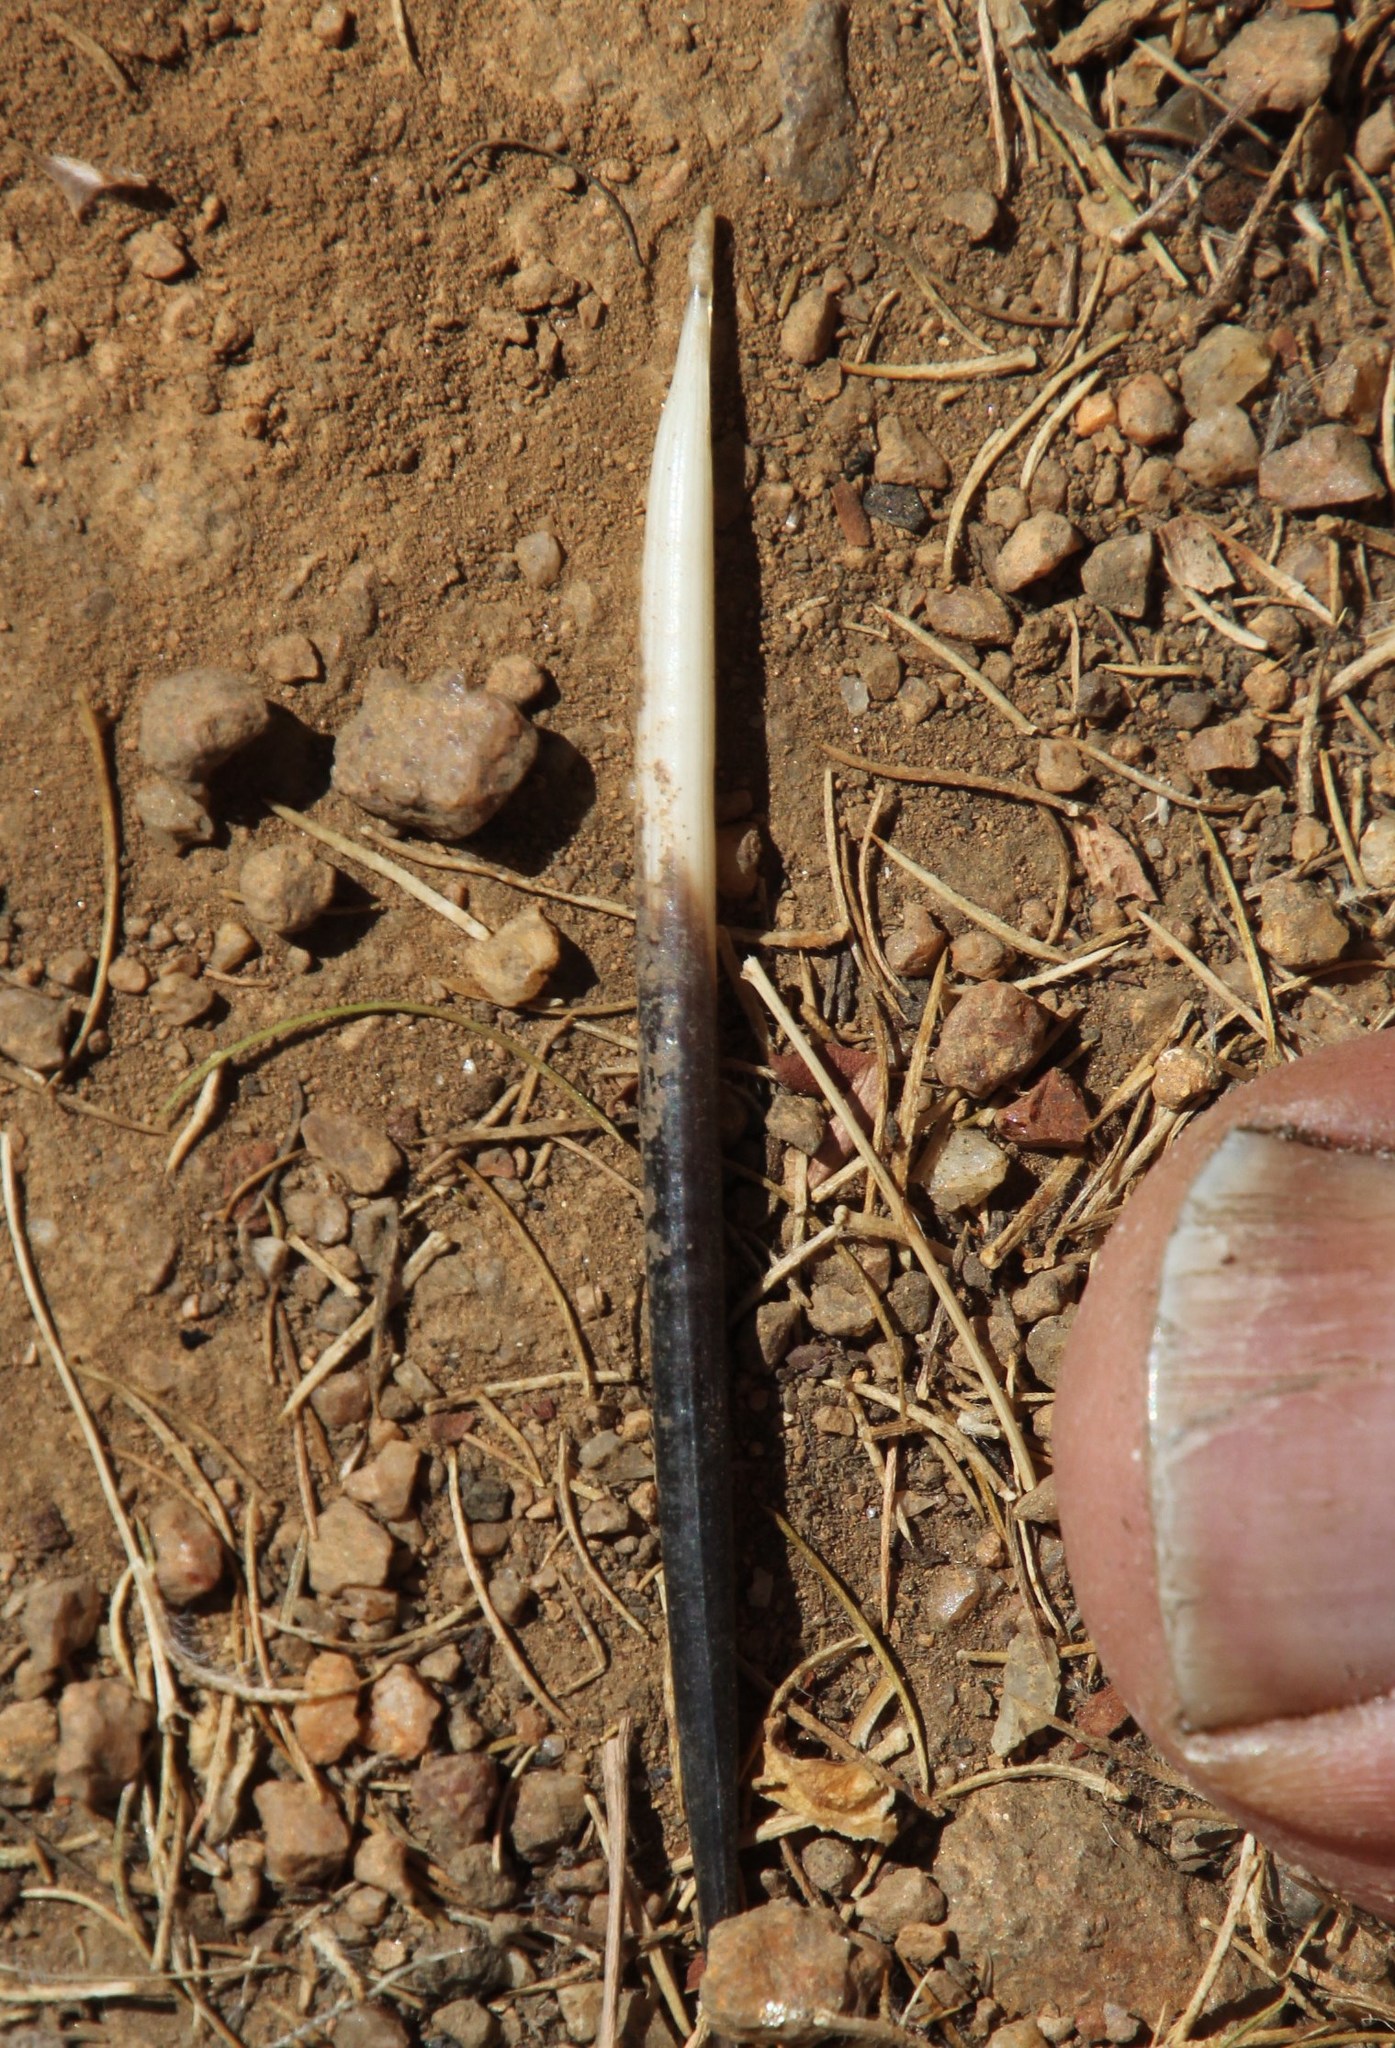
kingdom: Animalia
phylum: Chordata
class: Mammalia
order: Rodentia
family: Hystricidae
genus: Hystrix
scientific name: Hystrix africaeaustralis
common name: Cape porcupine
